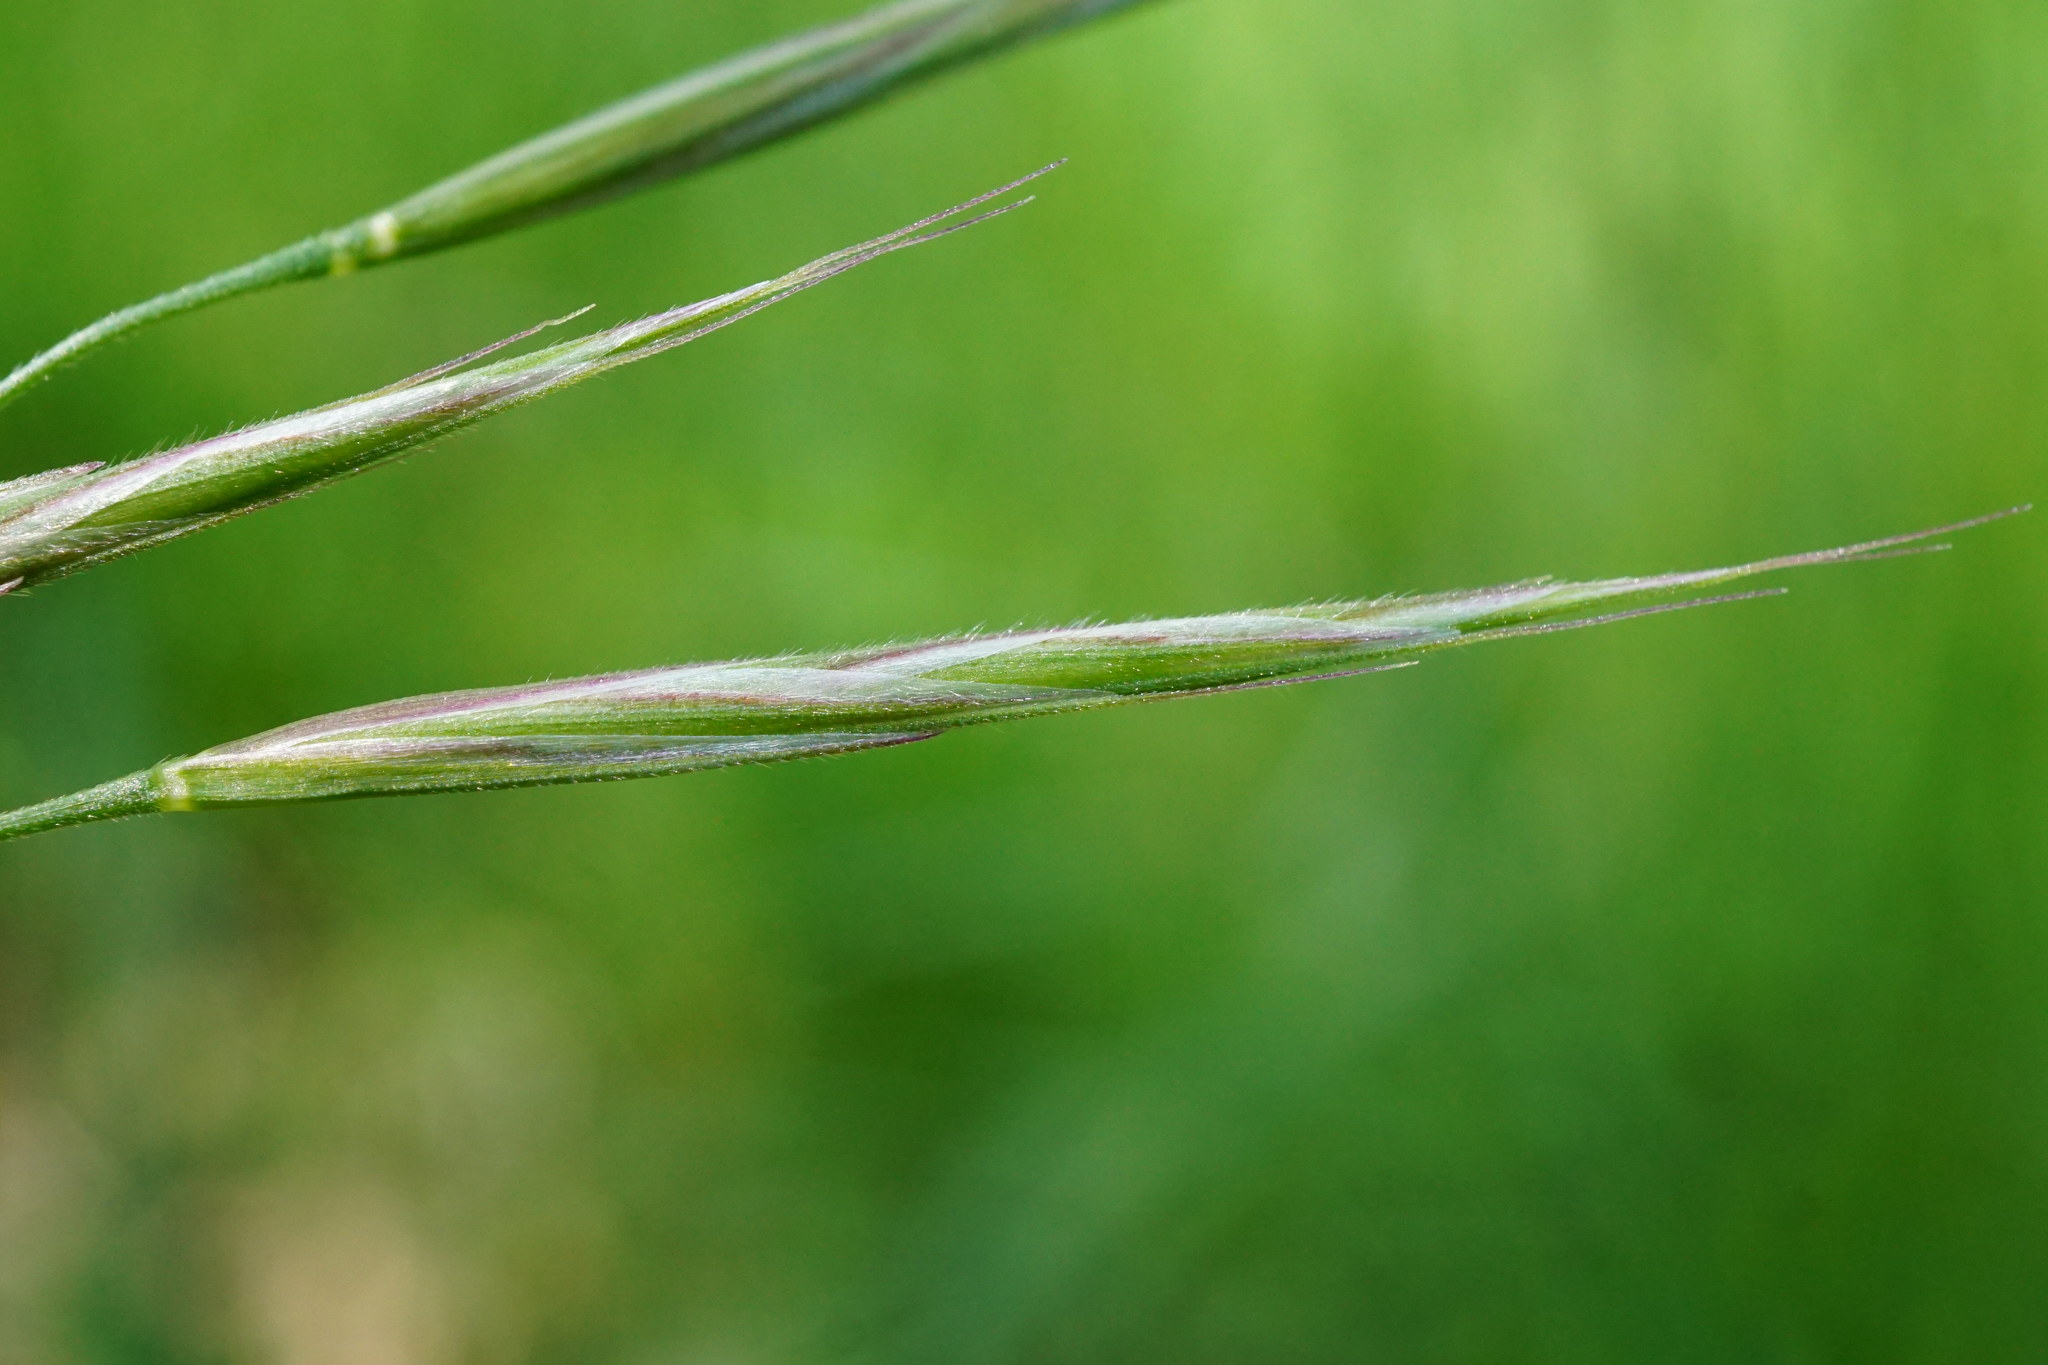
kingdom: Plantae
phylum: Tracheophyta
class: Liliopsida
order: Poales
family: Poaceae
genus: Bromus
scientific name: Bromus erectus
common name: Erect brome
